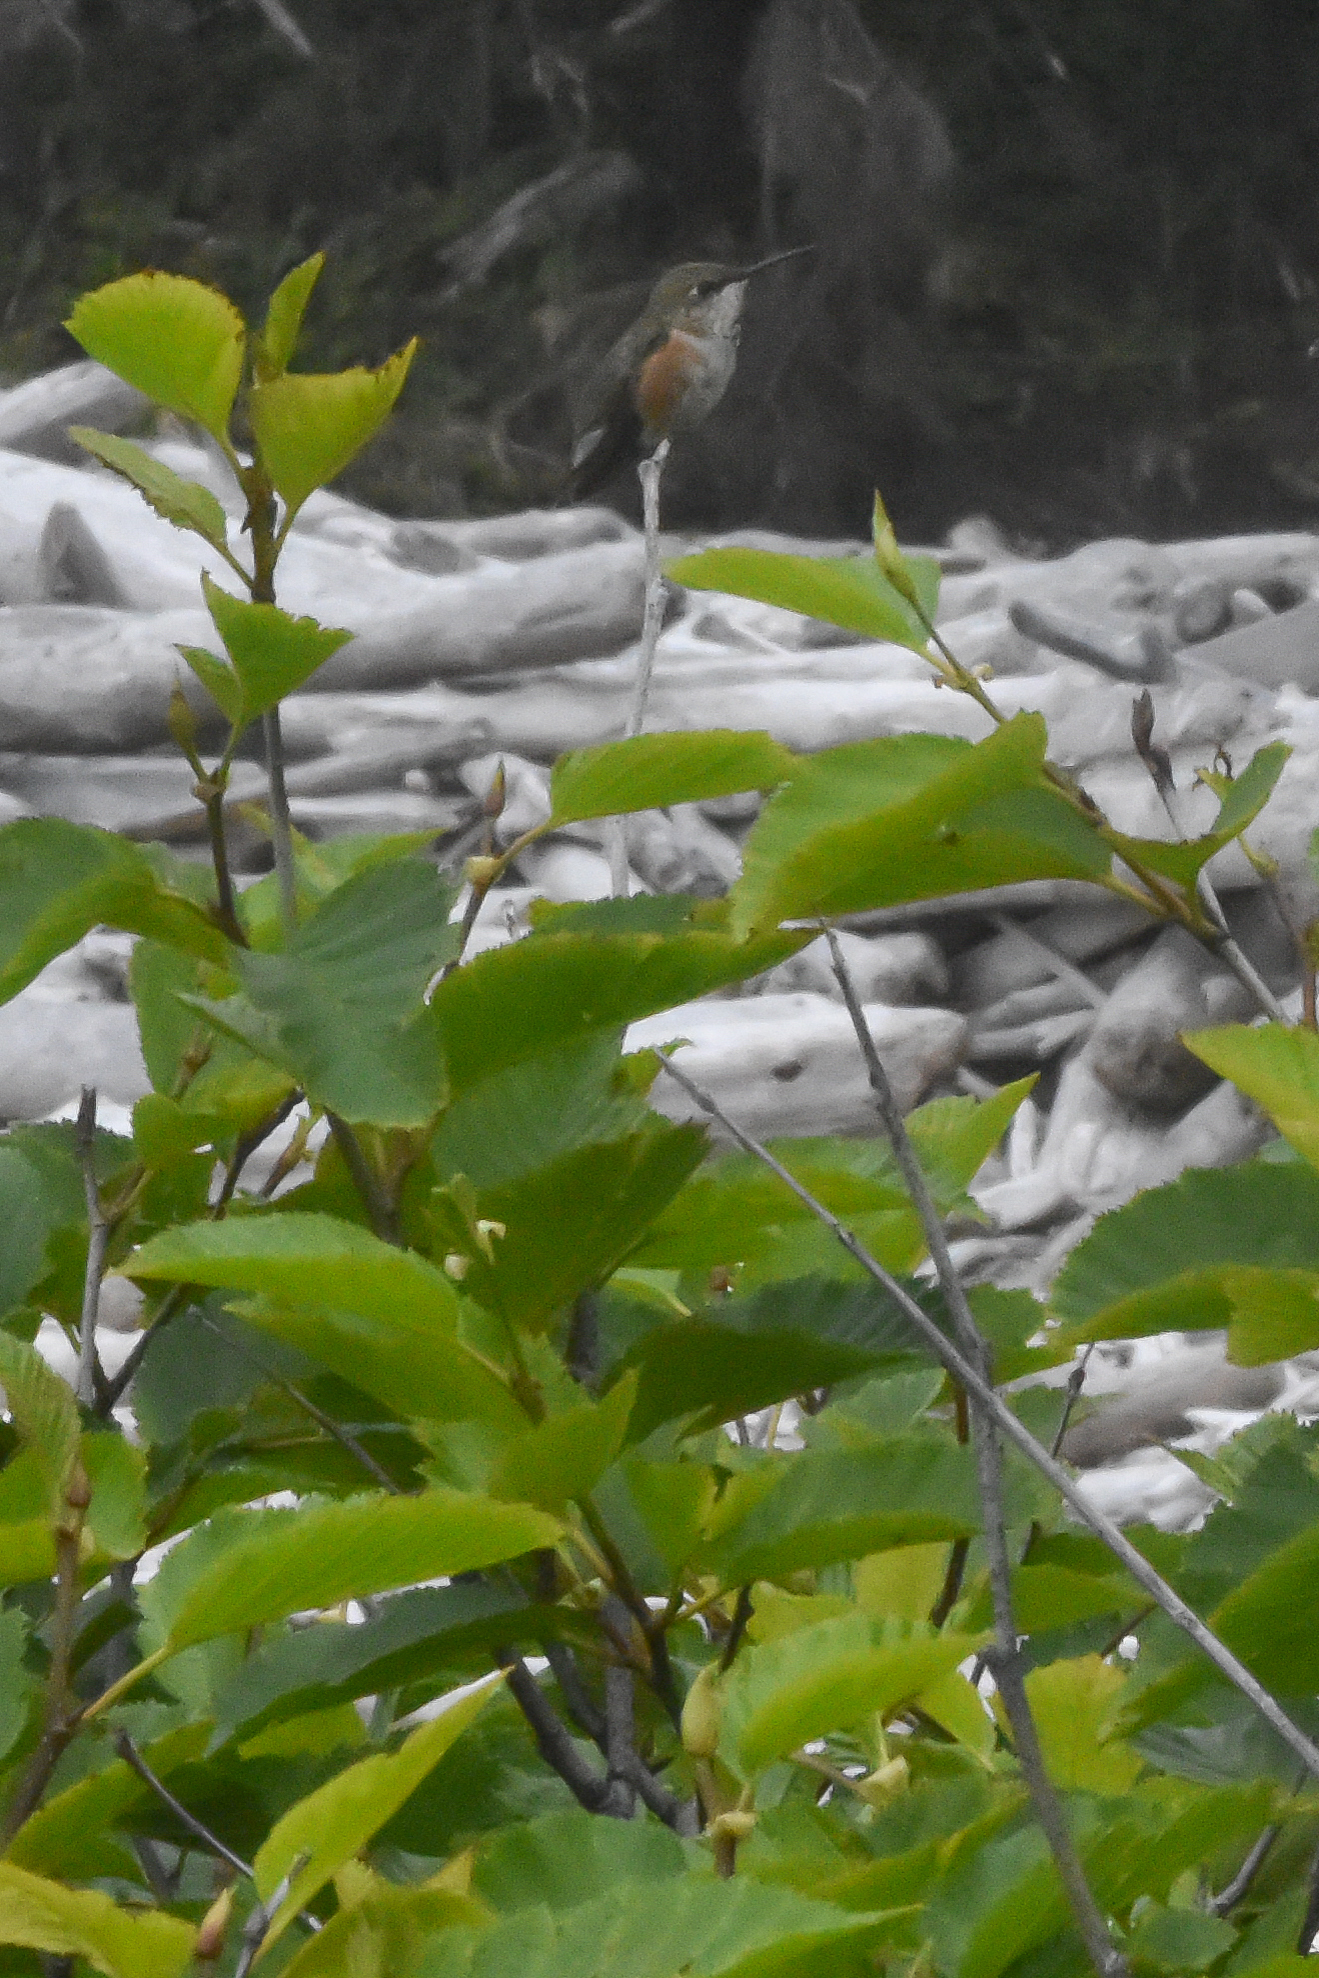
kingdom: Animalia
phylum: Chordata
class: Aves
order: Apodiformes
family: Trochilidae
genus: Selasphorus
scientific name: Selasphorus rufus
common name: Rufous hummingbird
